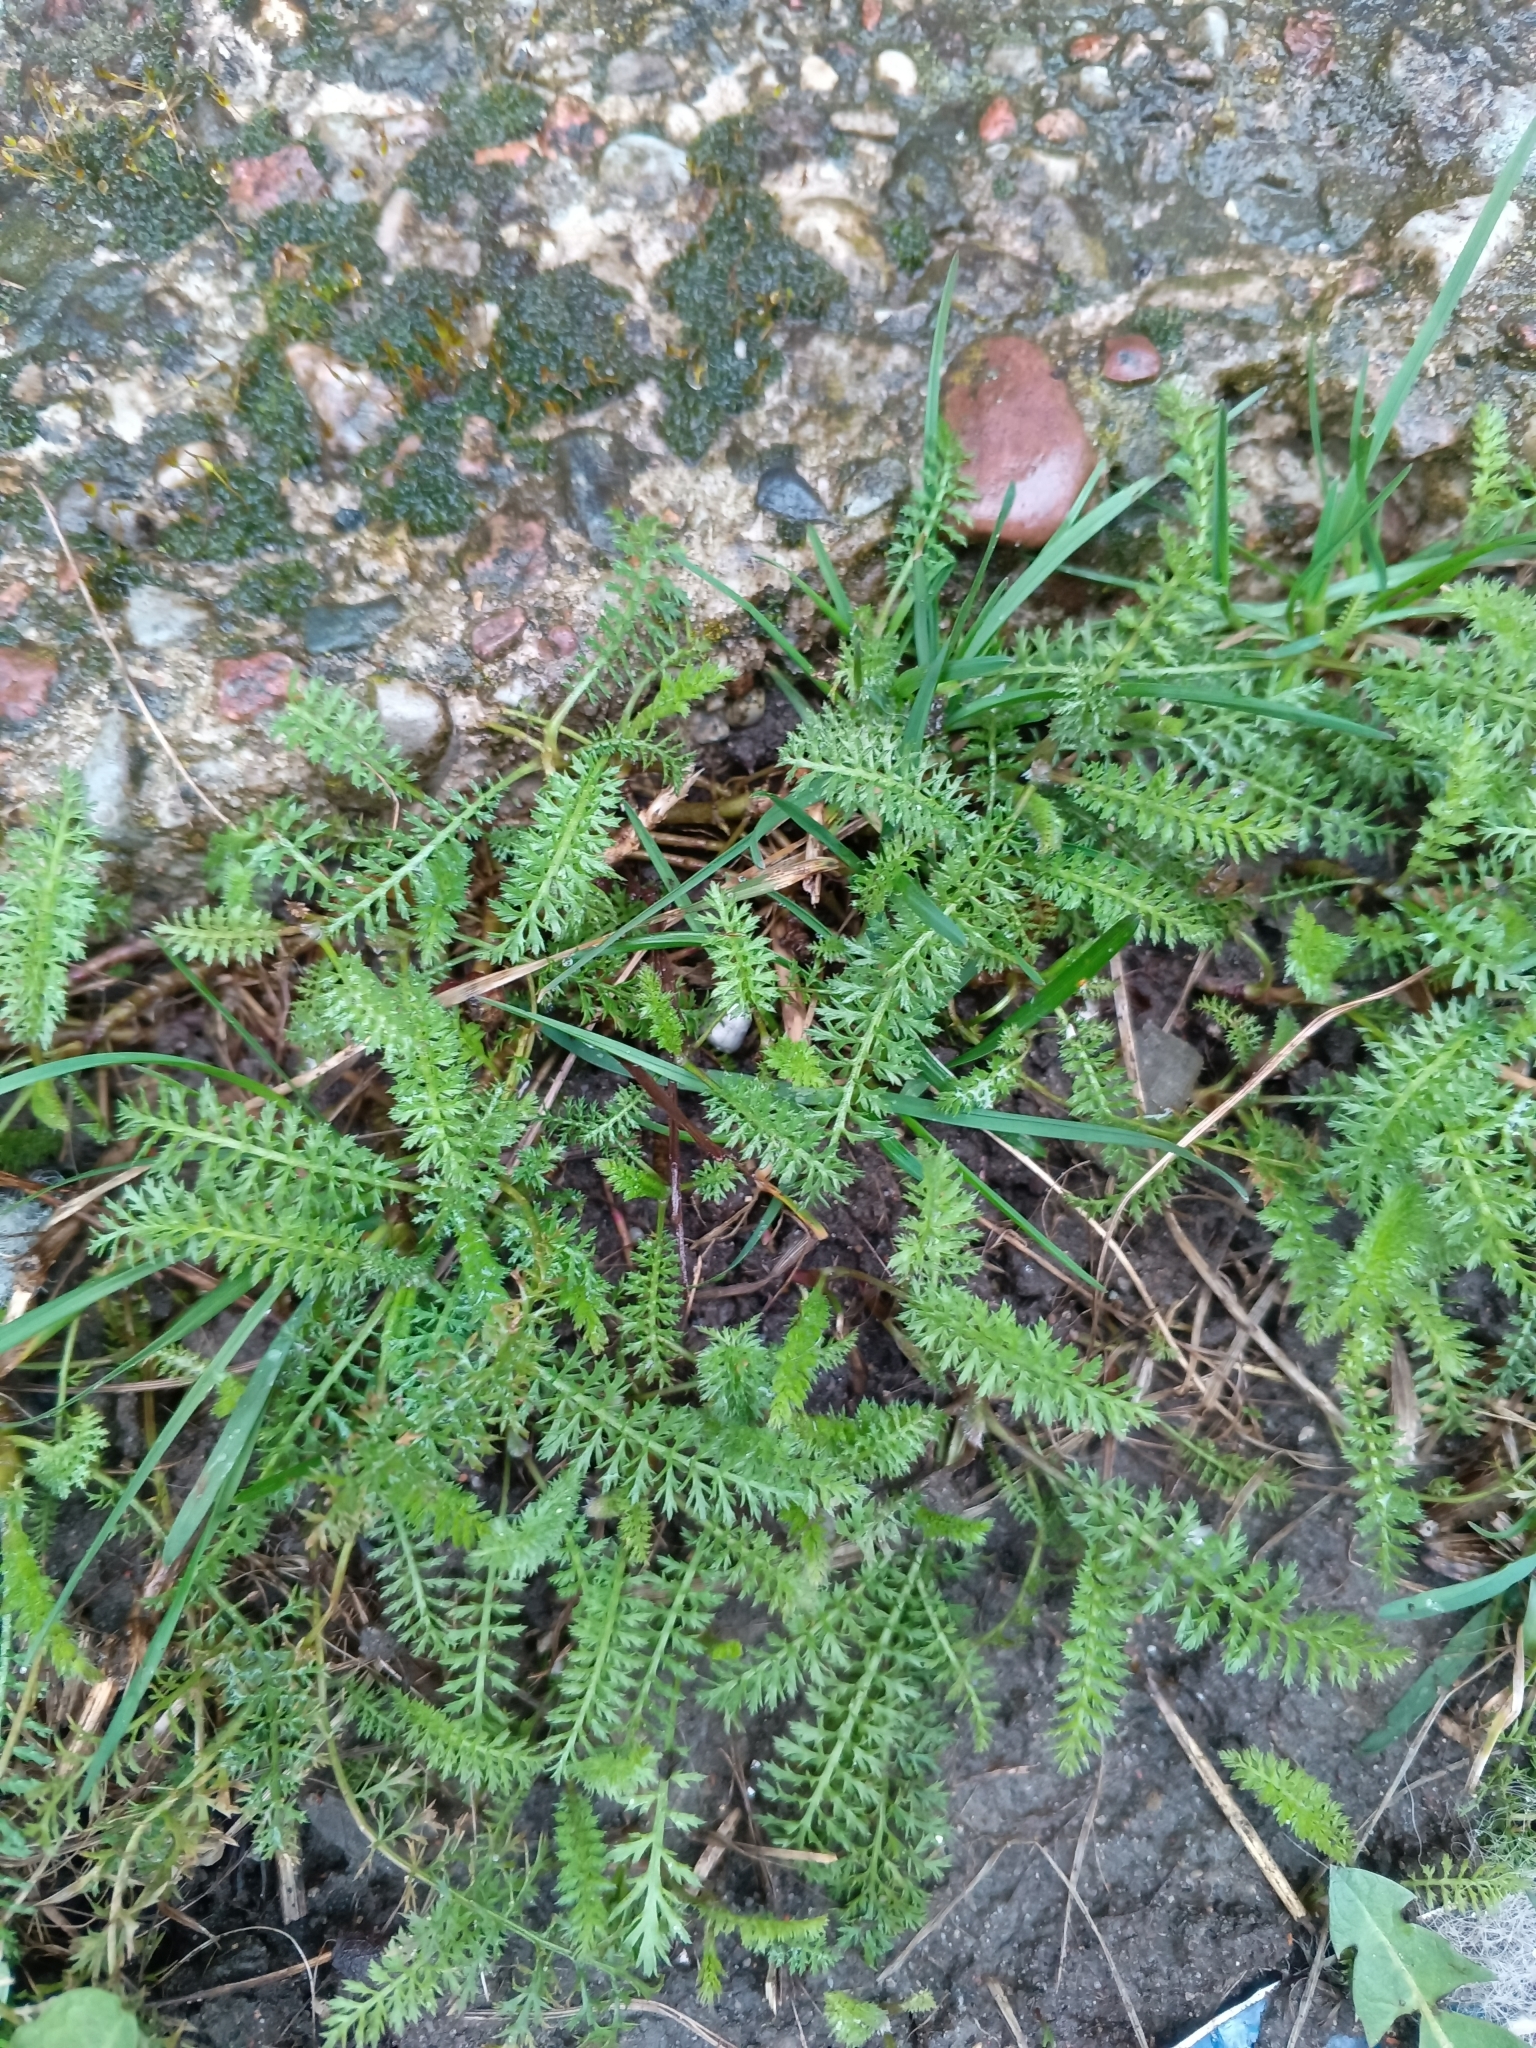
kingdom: Plantae
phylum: Tracheophyta
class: Magnoliopsida
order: Asterales
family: Asteraceae
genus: Achillea
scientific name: Achillea millefolium
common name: Yarrow
